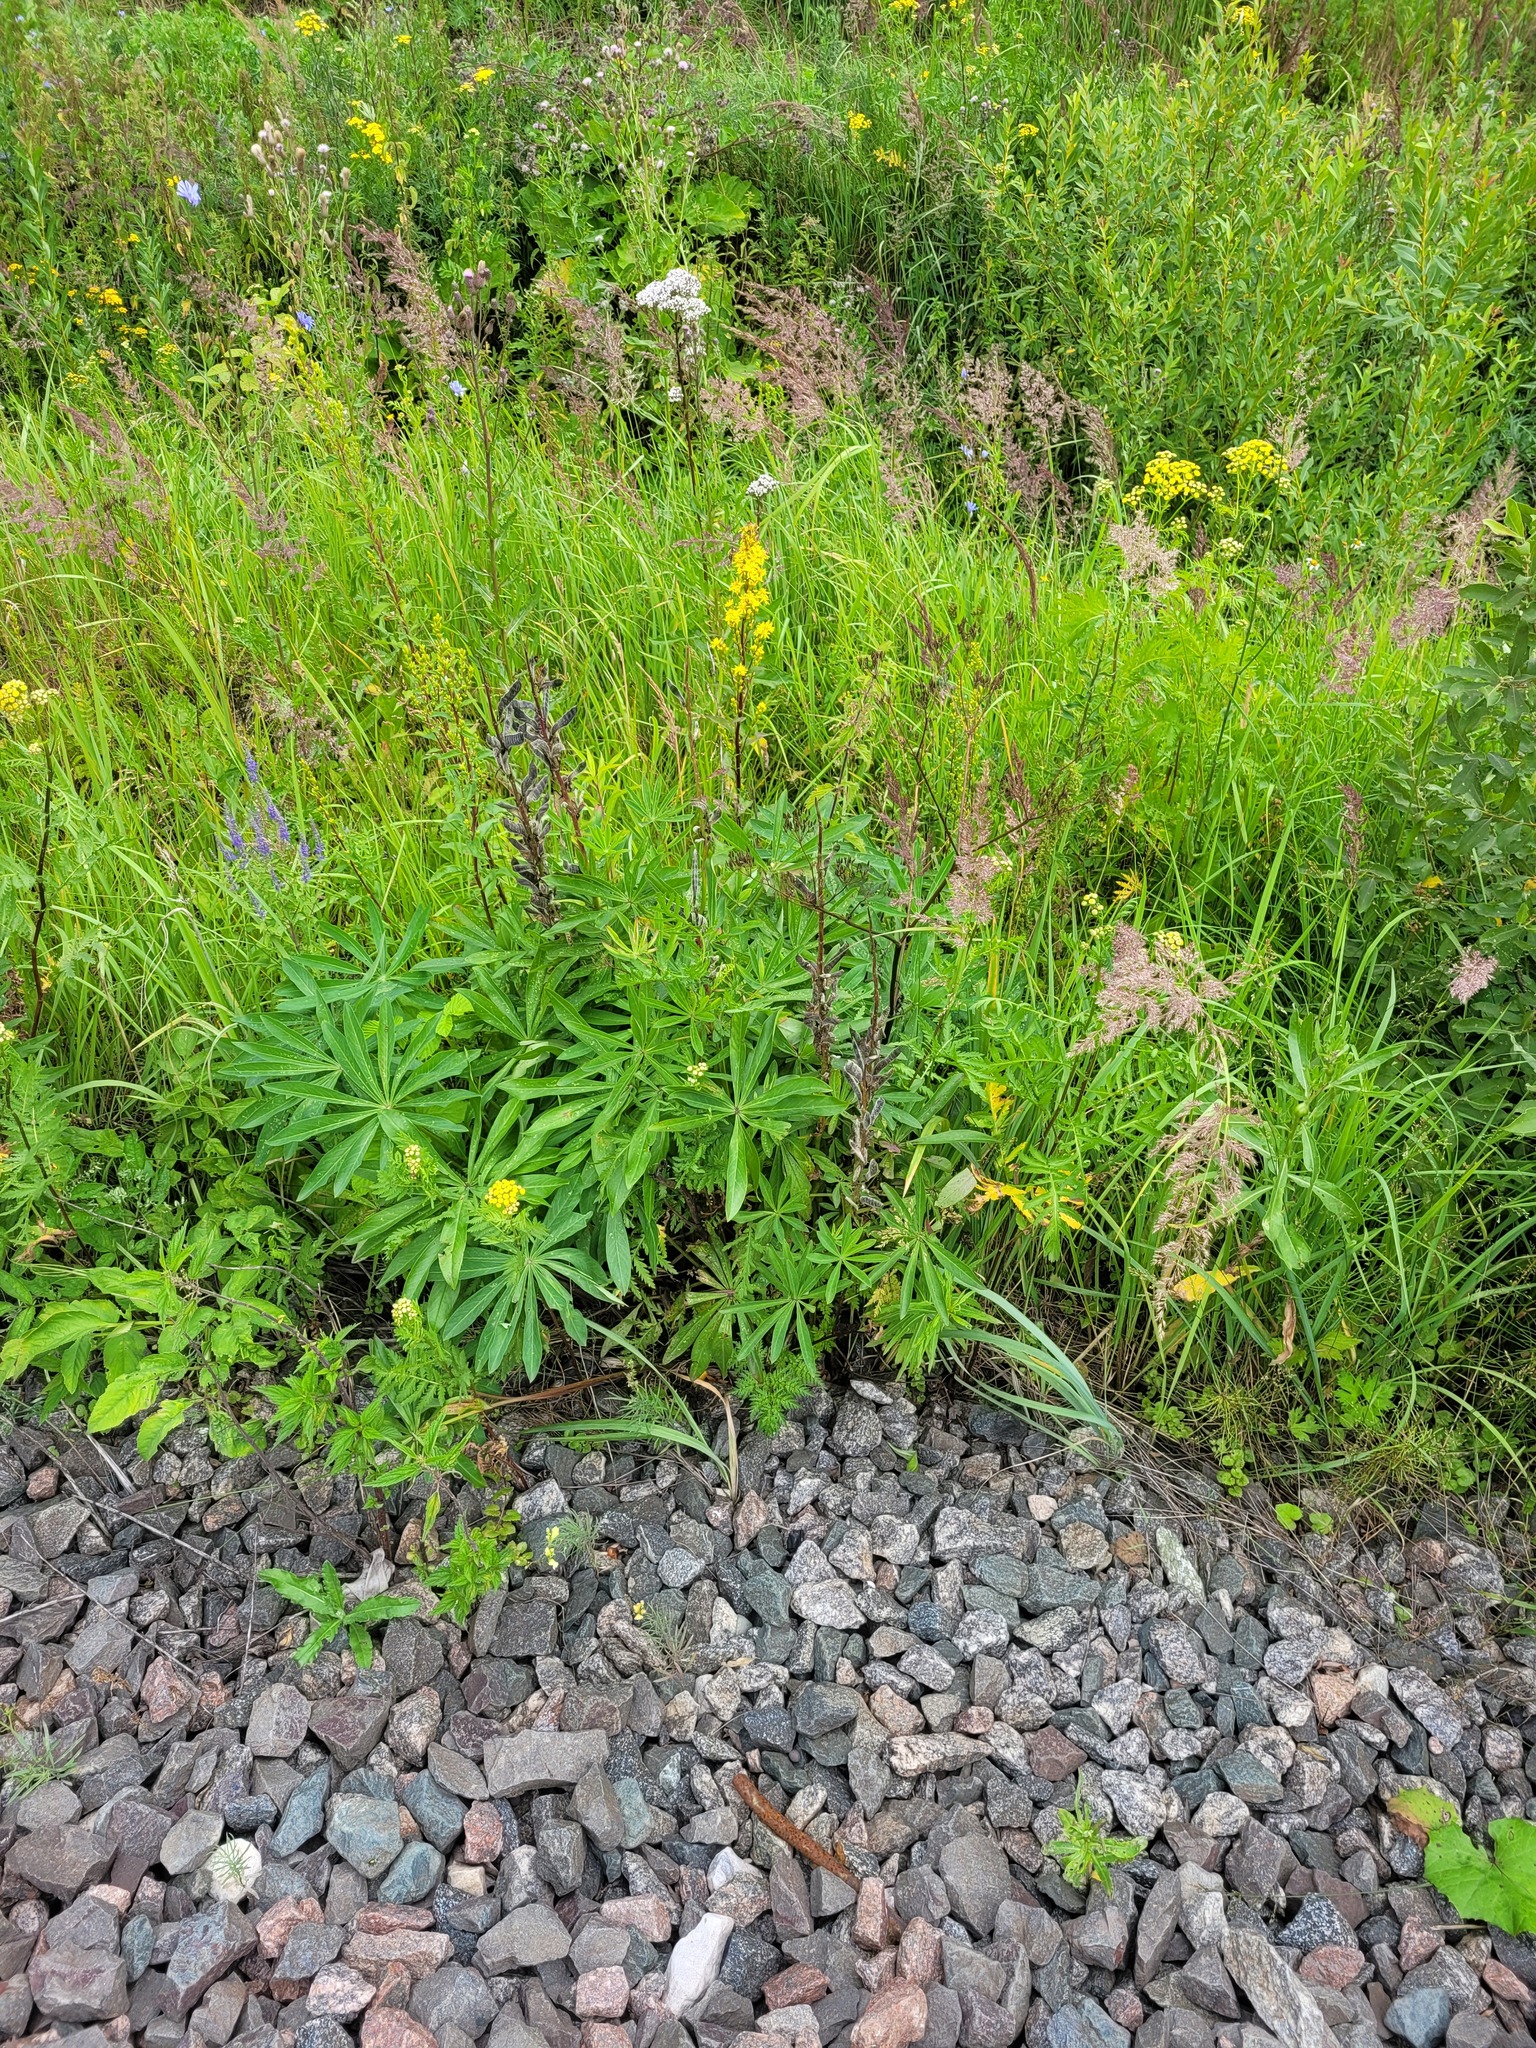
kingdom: Plantae
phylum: Tracheophyta
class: Magnoliopsida
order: Fabales
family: Fabaceae
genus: Lupinus
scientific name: Lupinus polyphyllus
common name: Garden lupin
